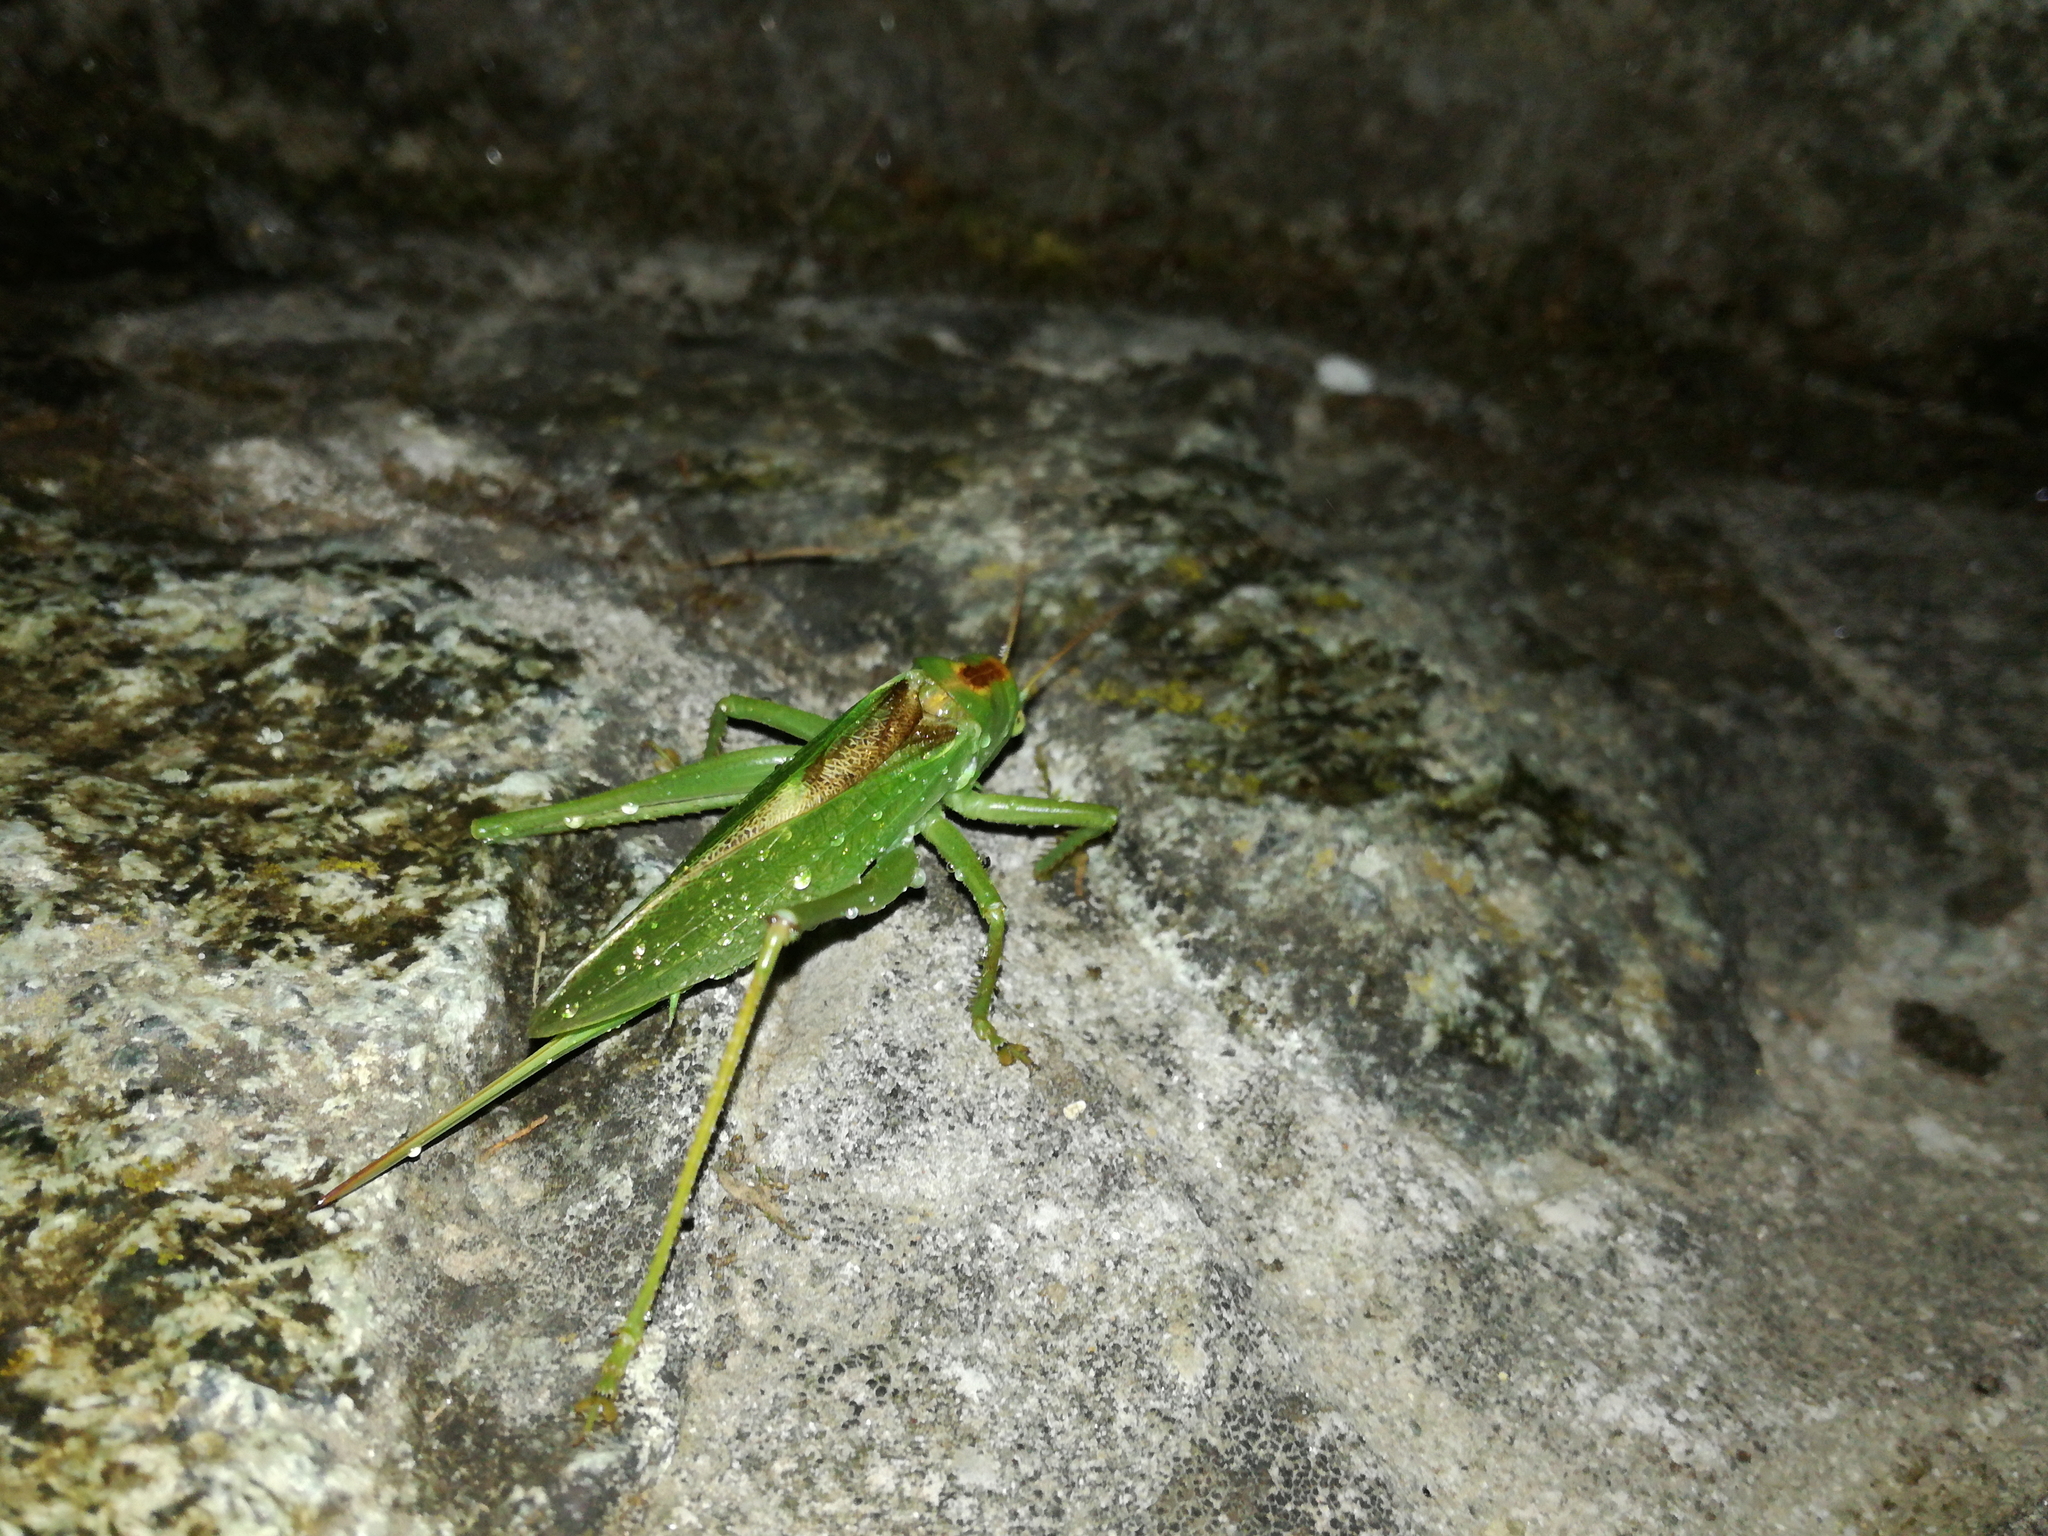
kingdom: Animalia
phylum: Arthropoda
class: Insecta
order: Orthoptera
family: Tettigoniidae
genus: Tettigonia
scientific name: Tettigonia cantans
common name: Upland green bush-cricket
